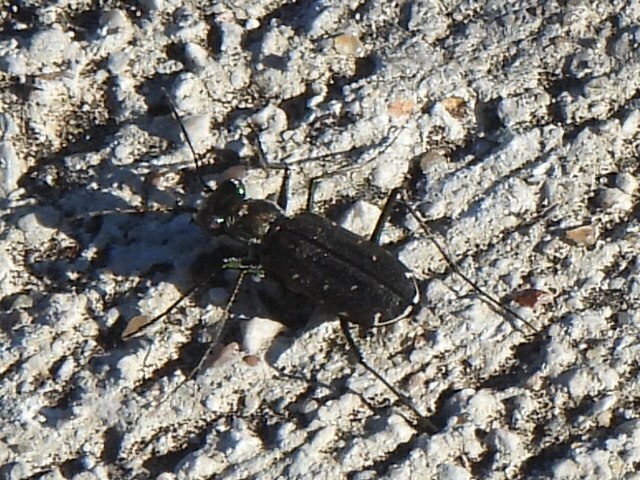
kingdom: Animalia
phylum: Arthropoda
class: Insecta
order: Coleoptera
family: Carabidae
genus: Cicindela
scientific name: Cicindela punctulata
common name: Punctured tiger beetle
